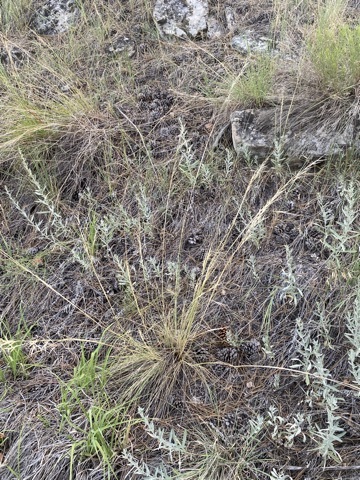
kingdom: Plantae
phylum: Tracheophyta
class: Liliopsida
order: Poales
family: Poaceae
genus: Hesperostipa
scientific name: Hesperostipa comata
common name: Needle-and-thread grass
